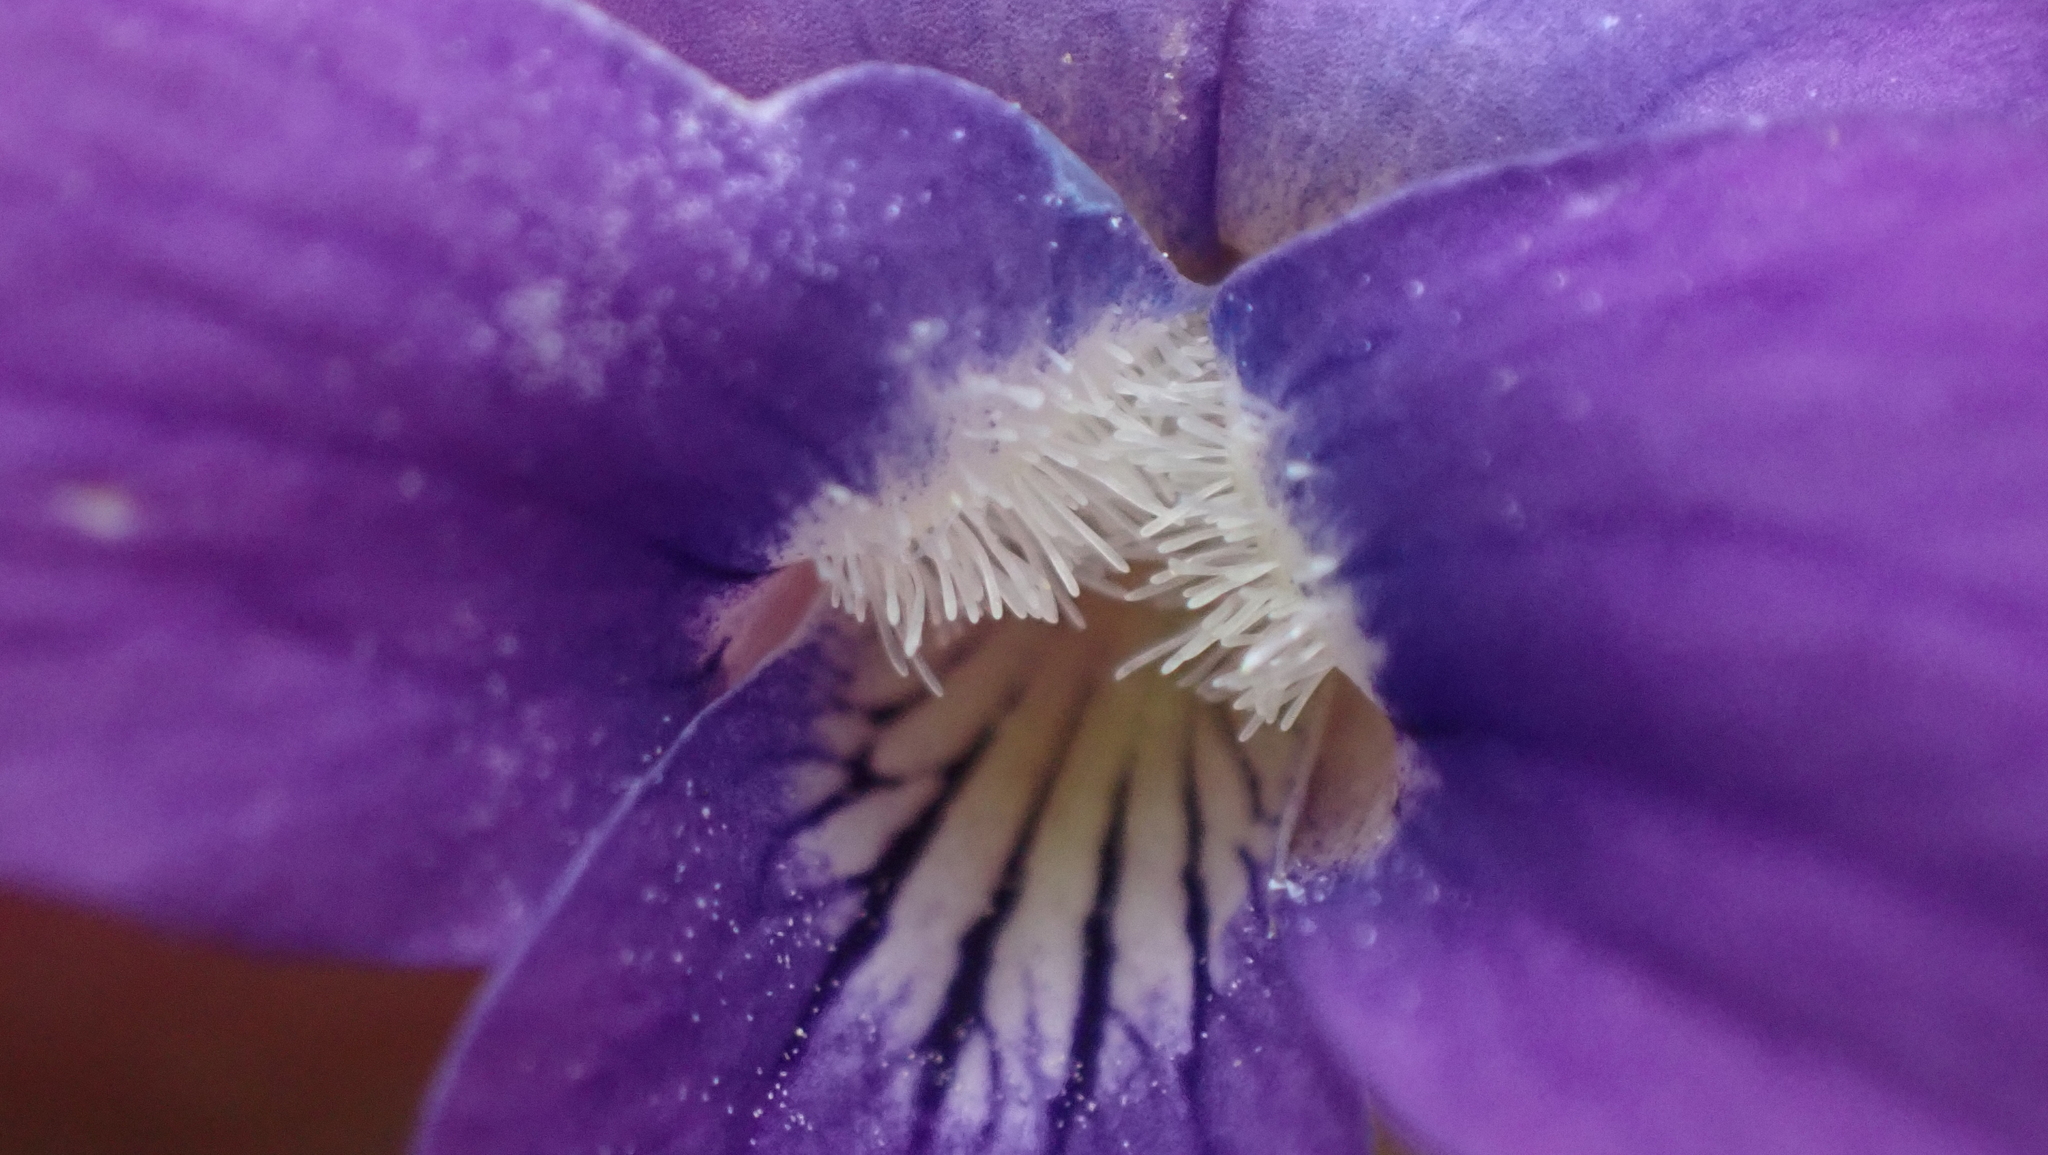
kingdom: Plantae
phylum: Tracheophyta
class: Magnoliopsida
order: Malpighiales
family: Violaceae
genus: Viola
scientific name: Viola sororia
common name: Dooryard violet
